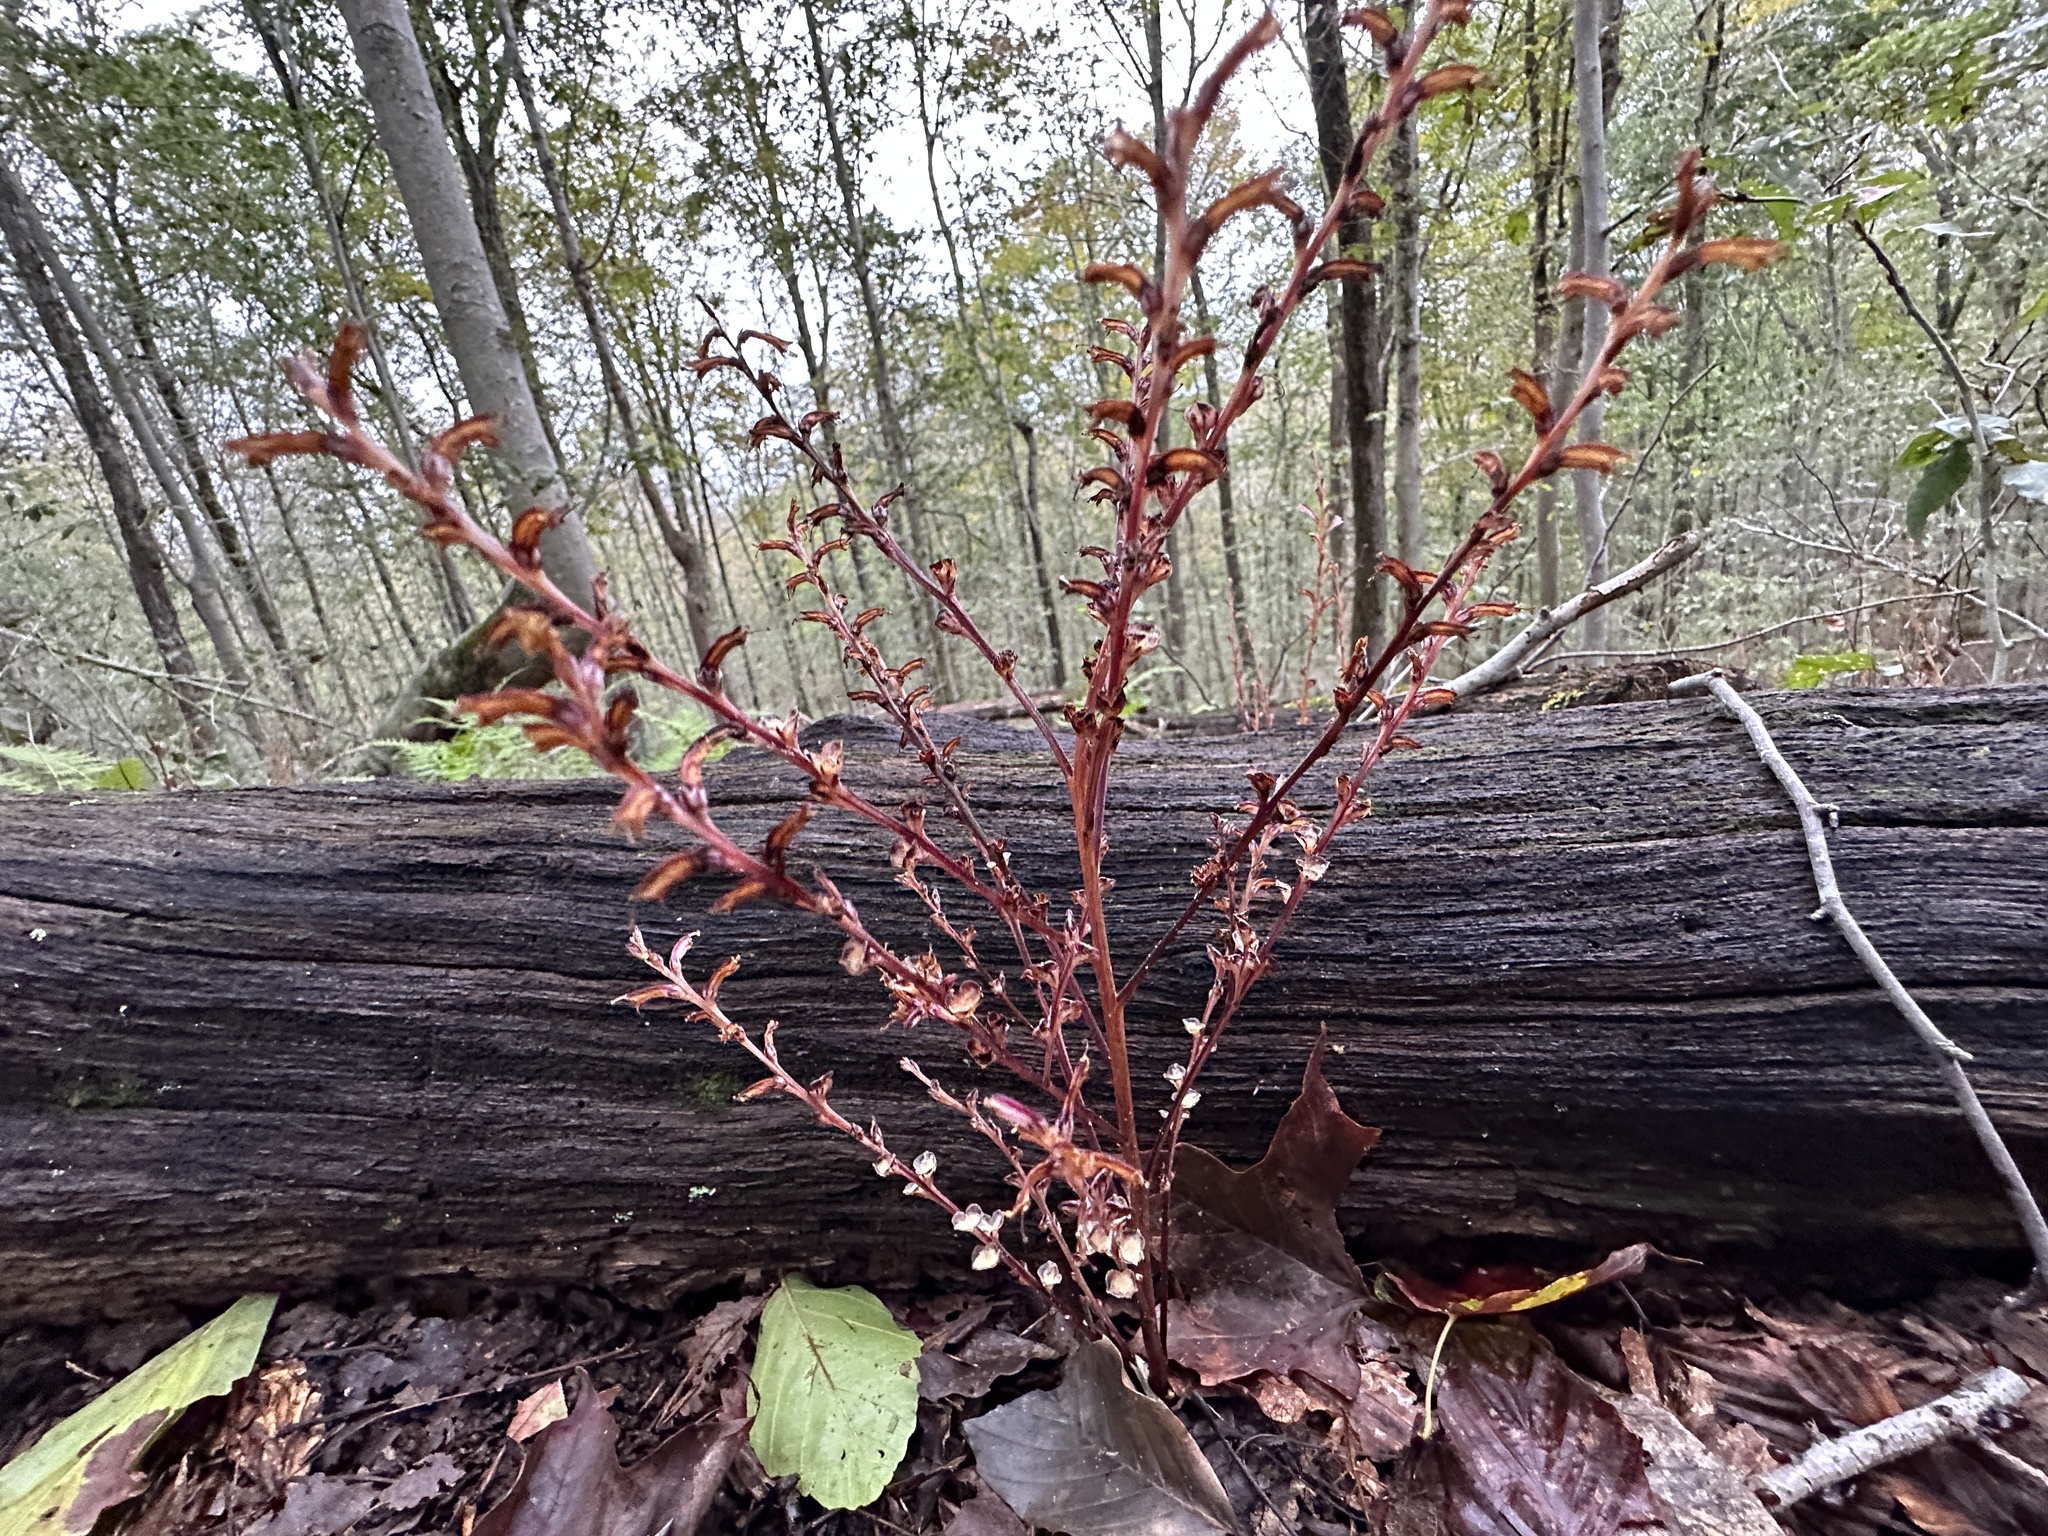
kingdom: Plantae
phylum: Tracheophyta
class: Magnoliopsida
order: Lamiales
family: Orobanchaceae
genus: Epifagus
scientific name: Epifagus virginiana
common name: Beechdrops
